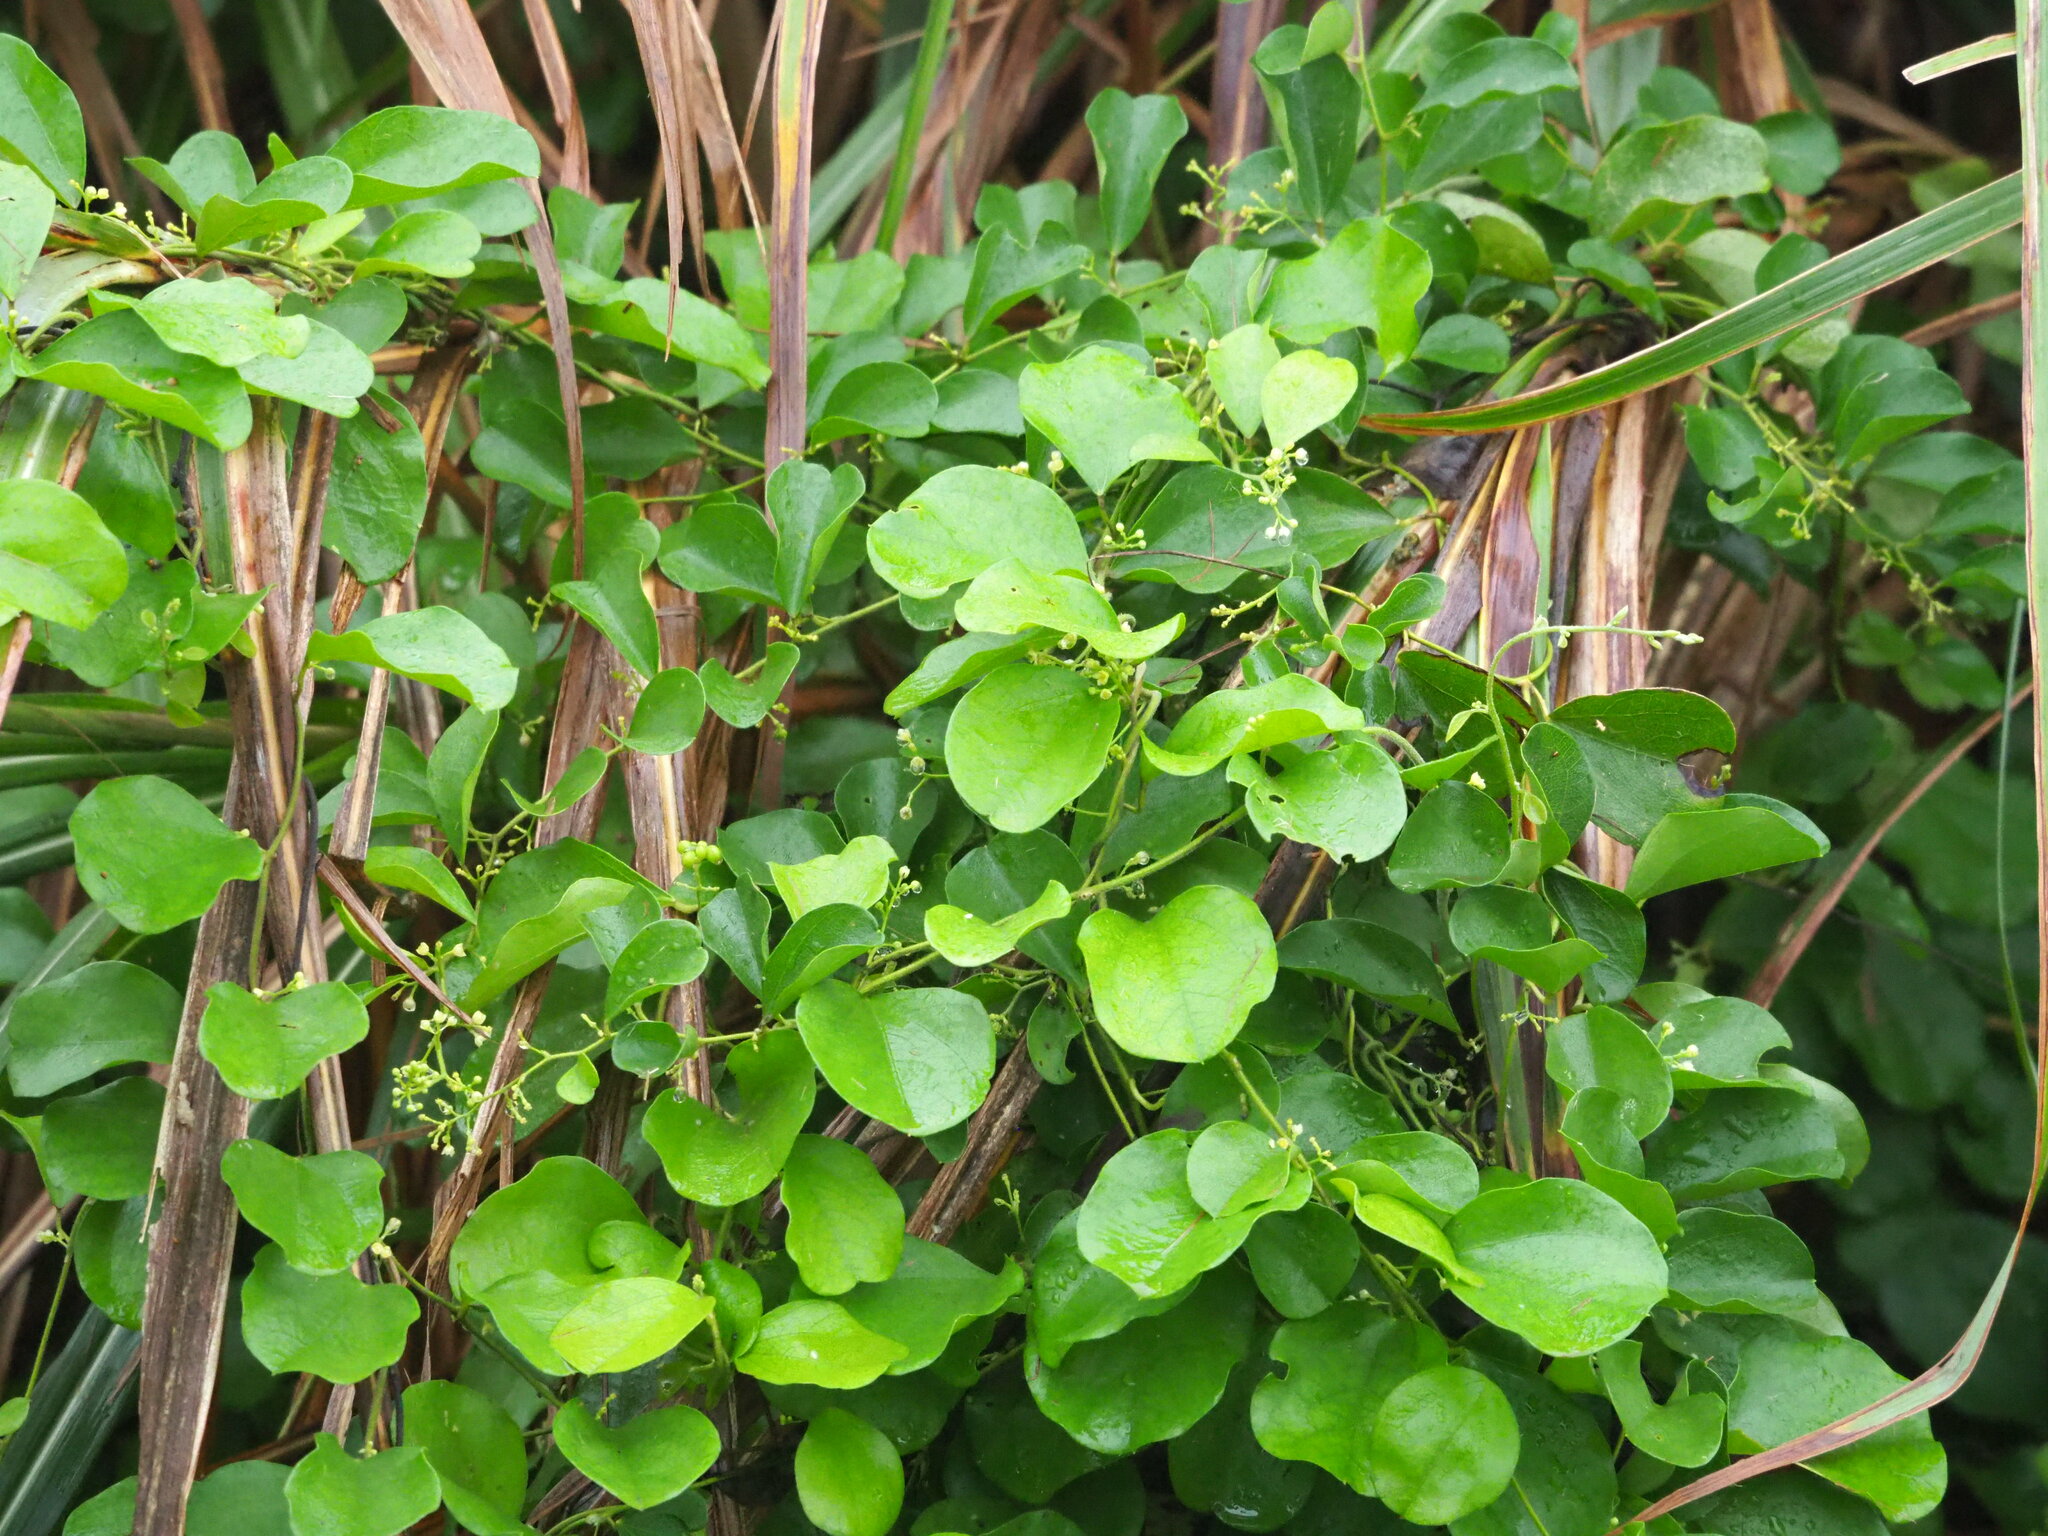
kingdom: Plantae
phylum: Tracheophyta
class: Magnoliopsida
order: Ranunculales
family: Menispermaceae
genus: Cocculus
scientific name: Cocculus orbiculatus
